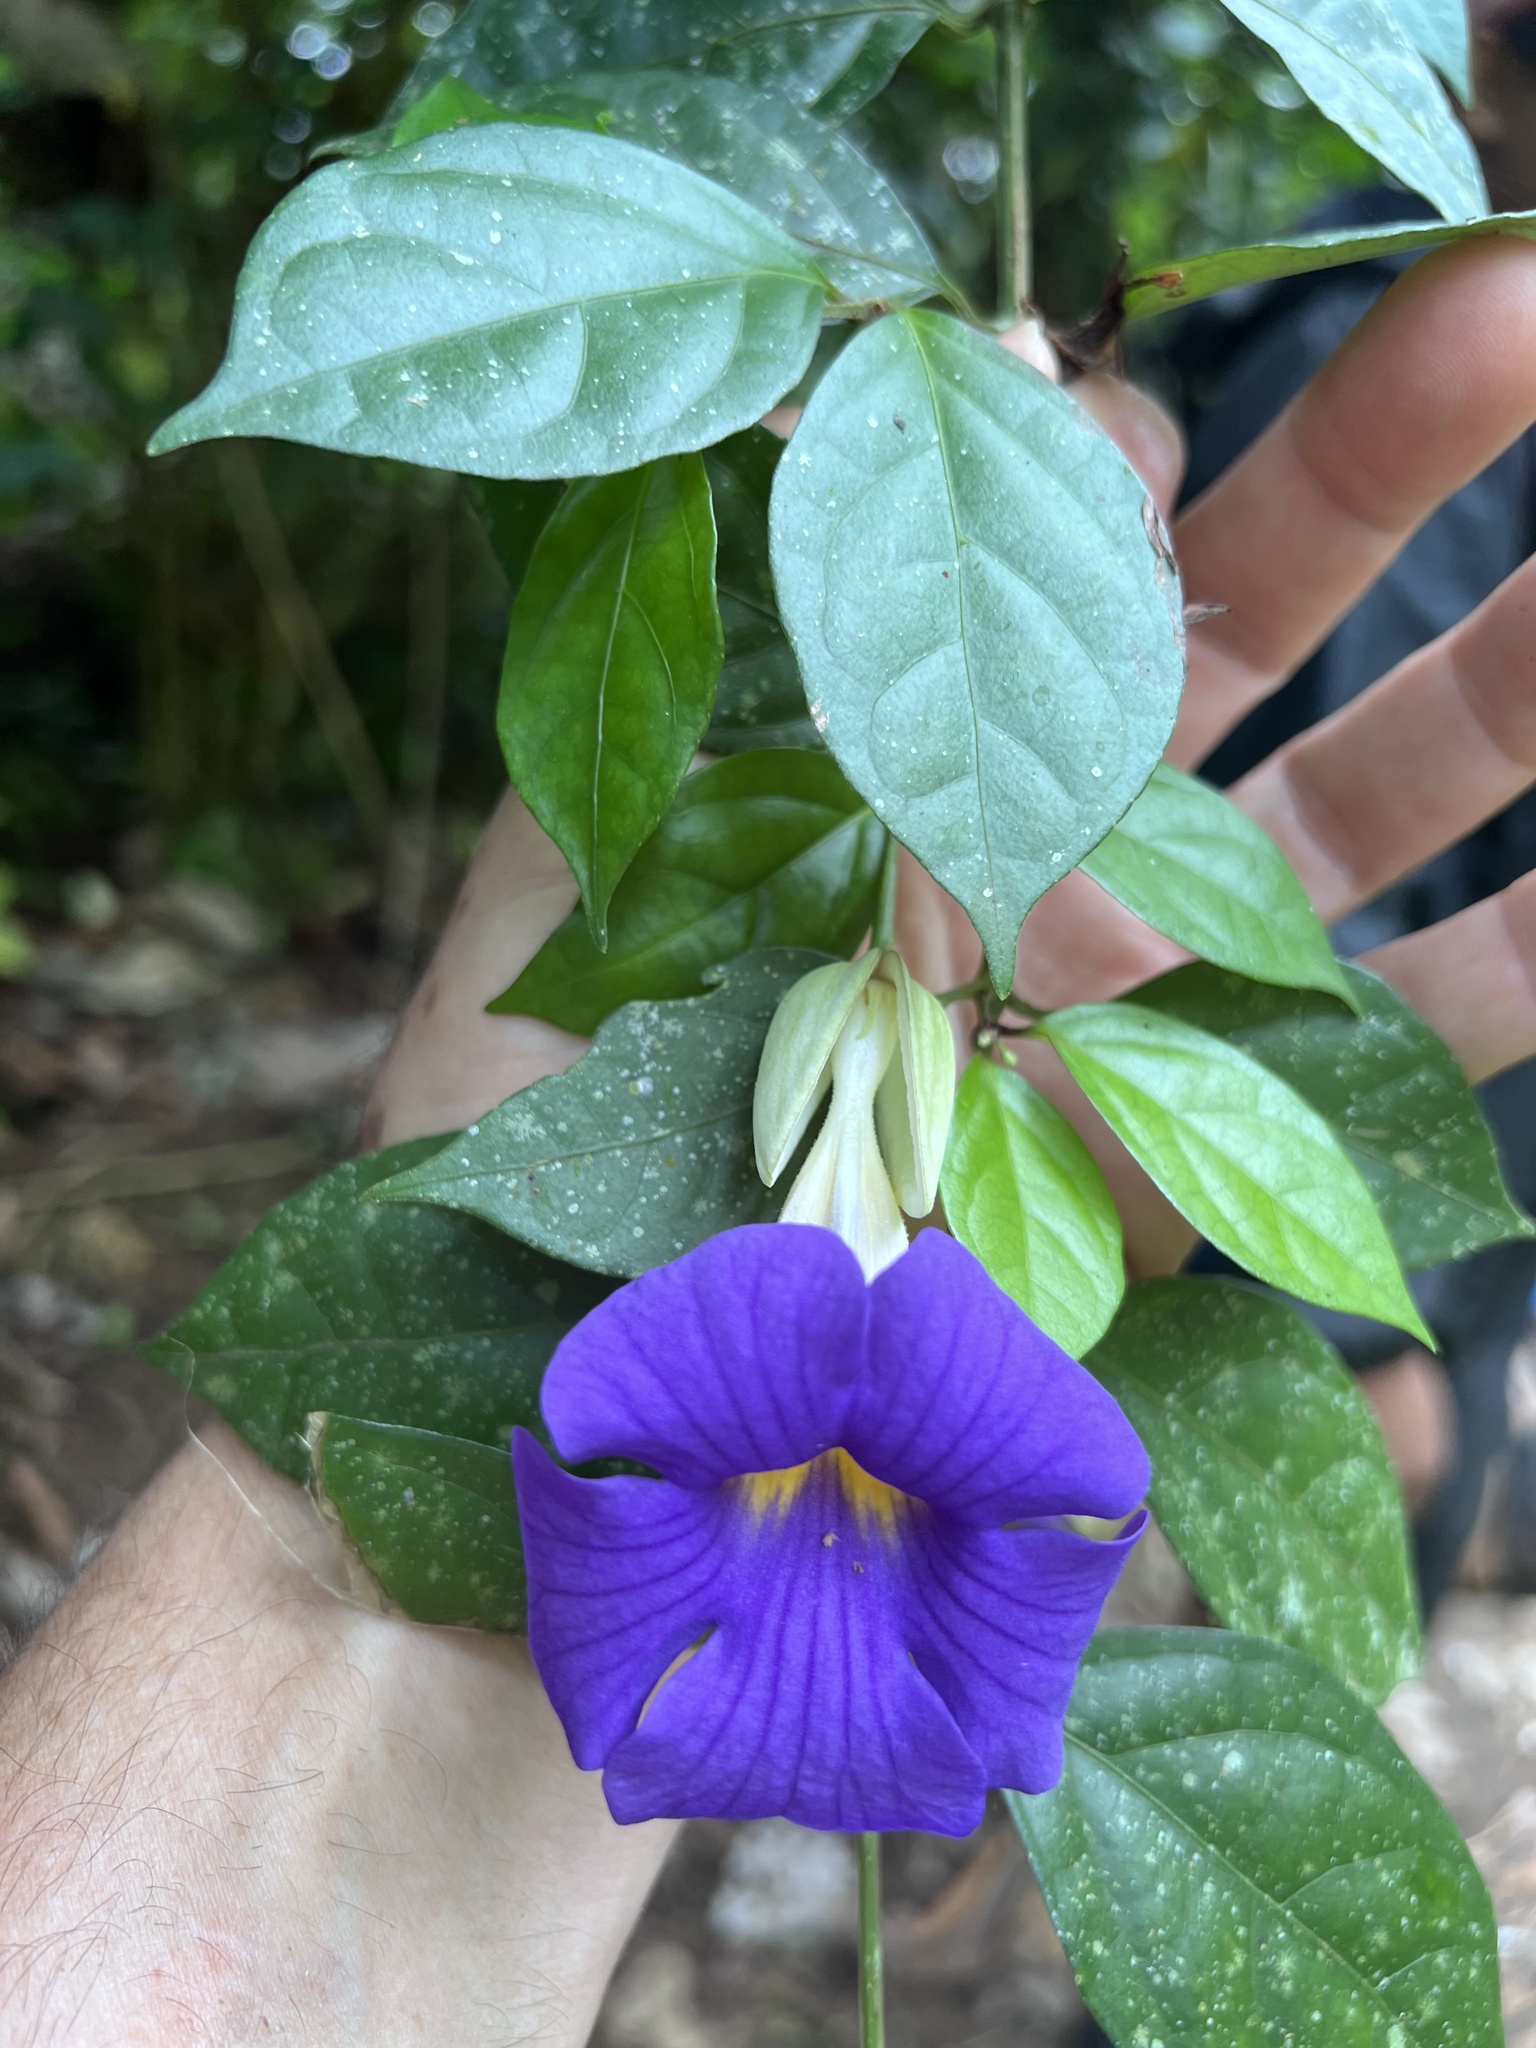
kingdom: Plantae
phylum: Tracheophyta
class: Magnoliopsida
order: Lamiales
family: Acanthaceae
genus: Thunbergia
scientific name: Thunbergia erecta
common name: Bush clockvine
